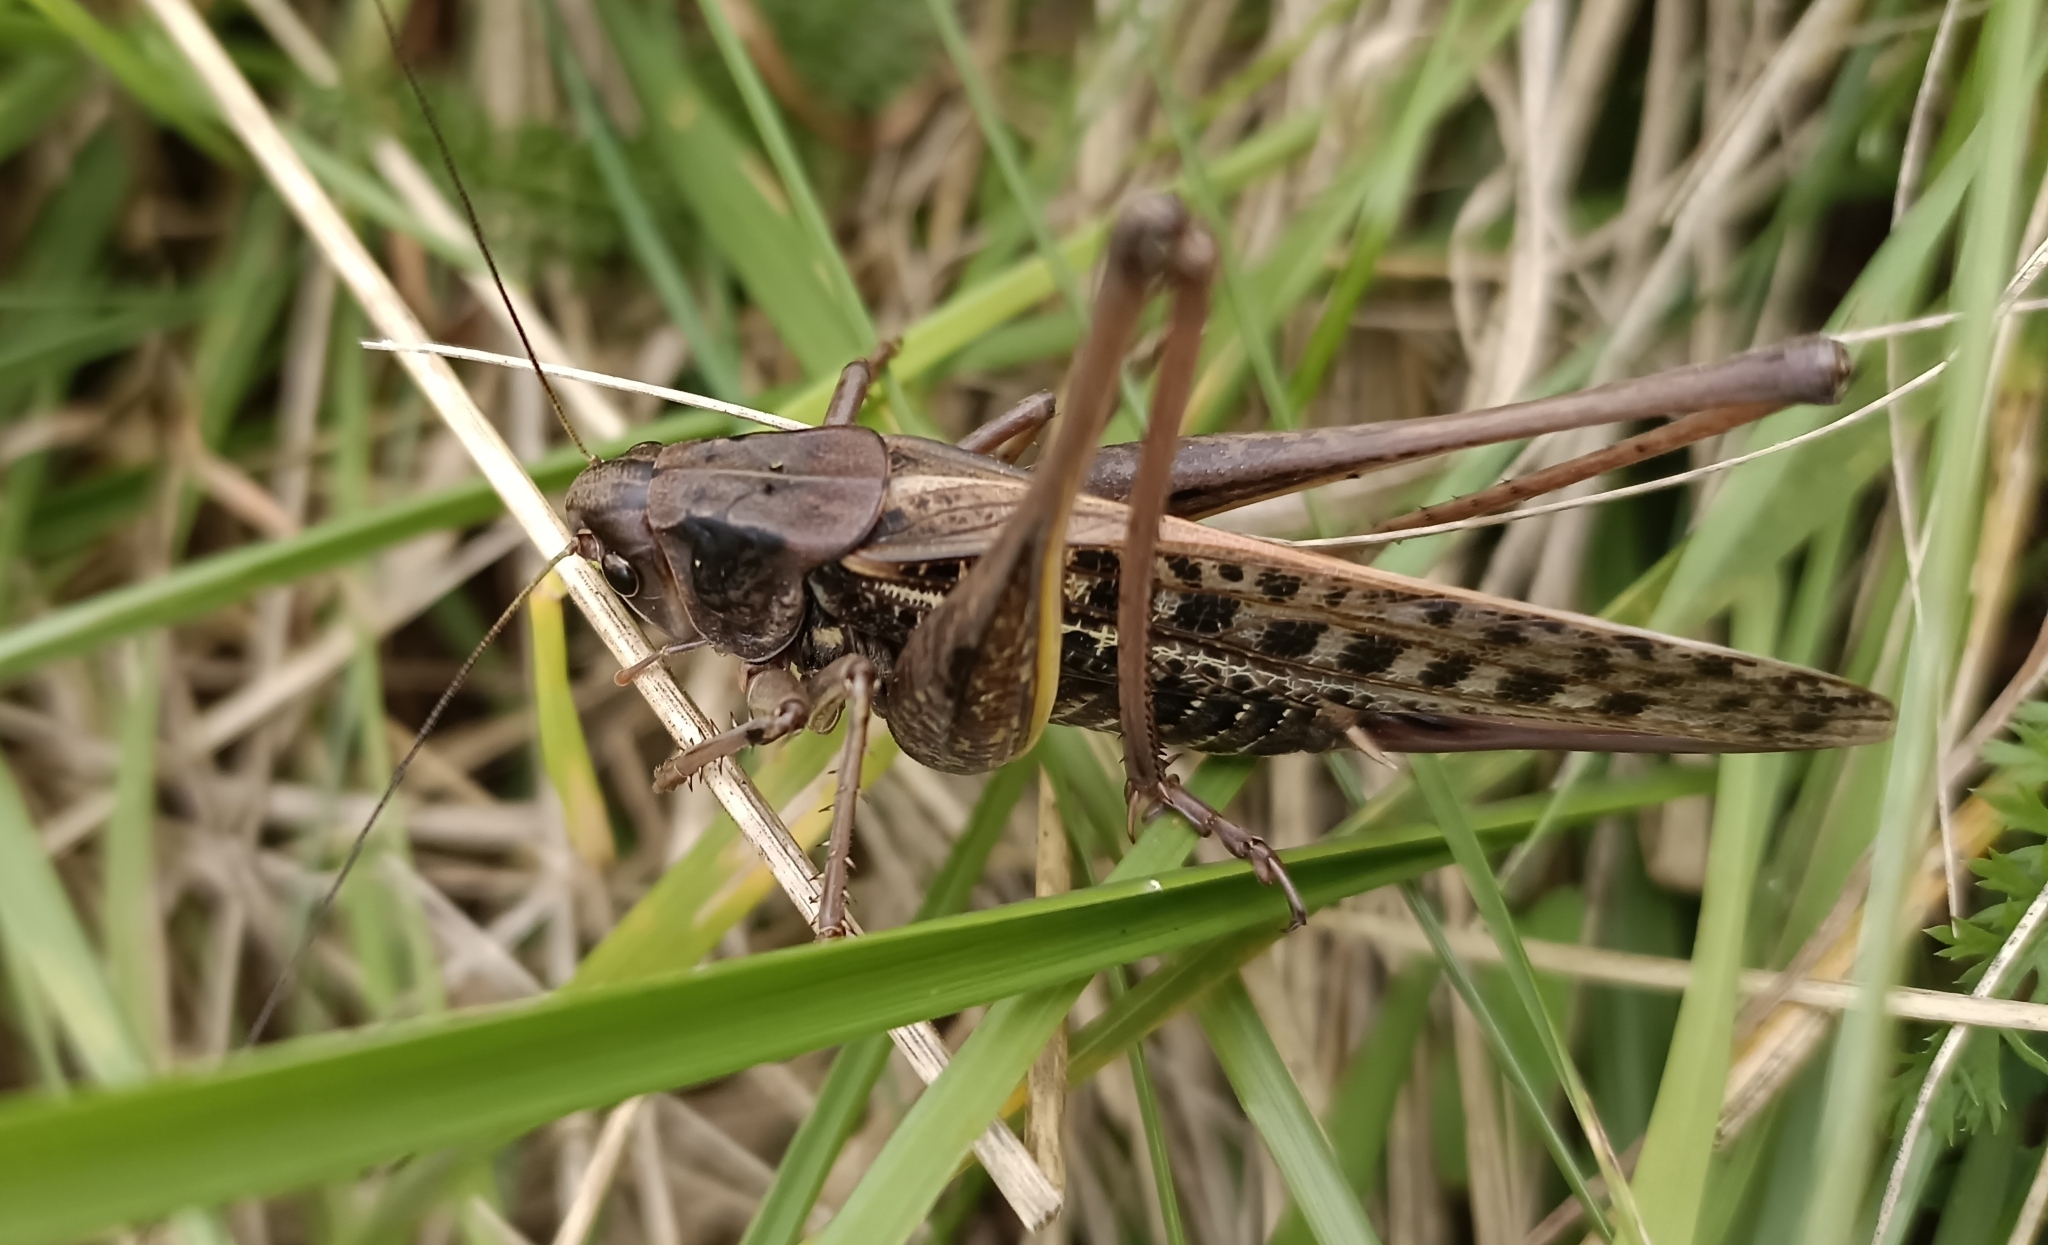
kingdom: Animalia
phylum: Arthropoda
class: Insecta
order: Orthoptera
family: Tettigoniidae
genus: Decticus
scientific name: Decticus verrucivorus
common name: Wart-biter
